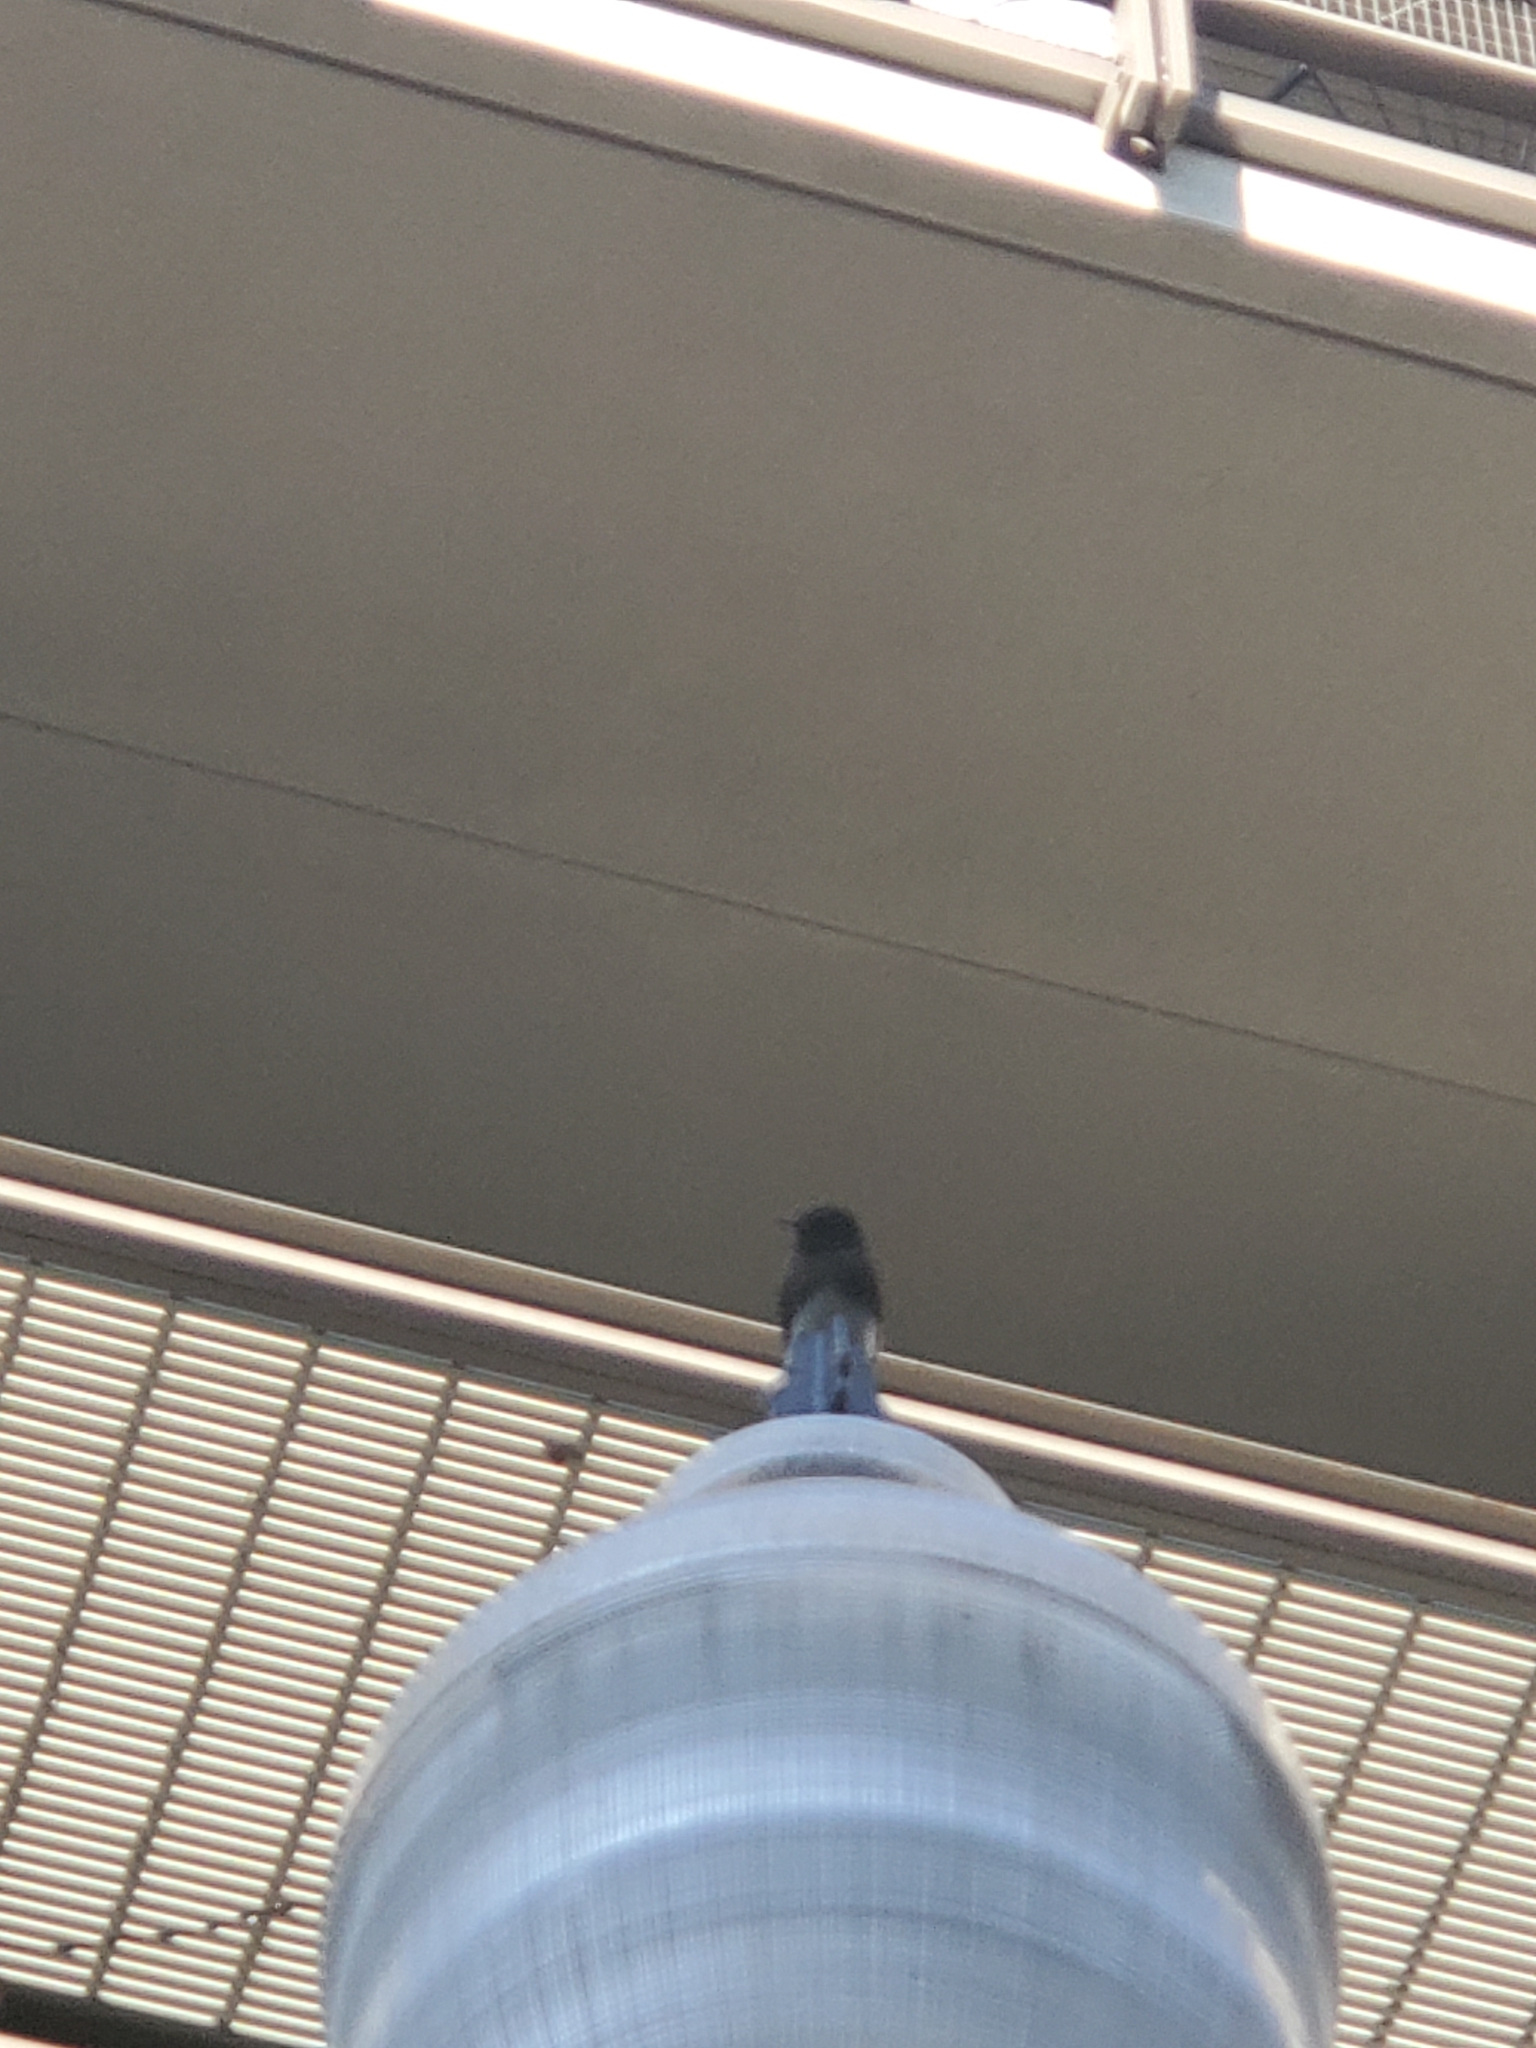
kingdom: Animalia
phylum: Chordata
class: Aves
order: Passeriformes
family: Tyrannidae
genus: Sayornis
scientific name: Sayornis nigricans
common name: Black phoebe
